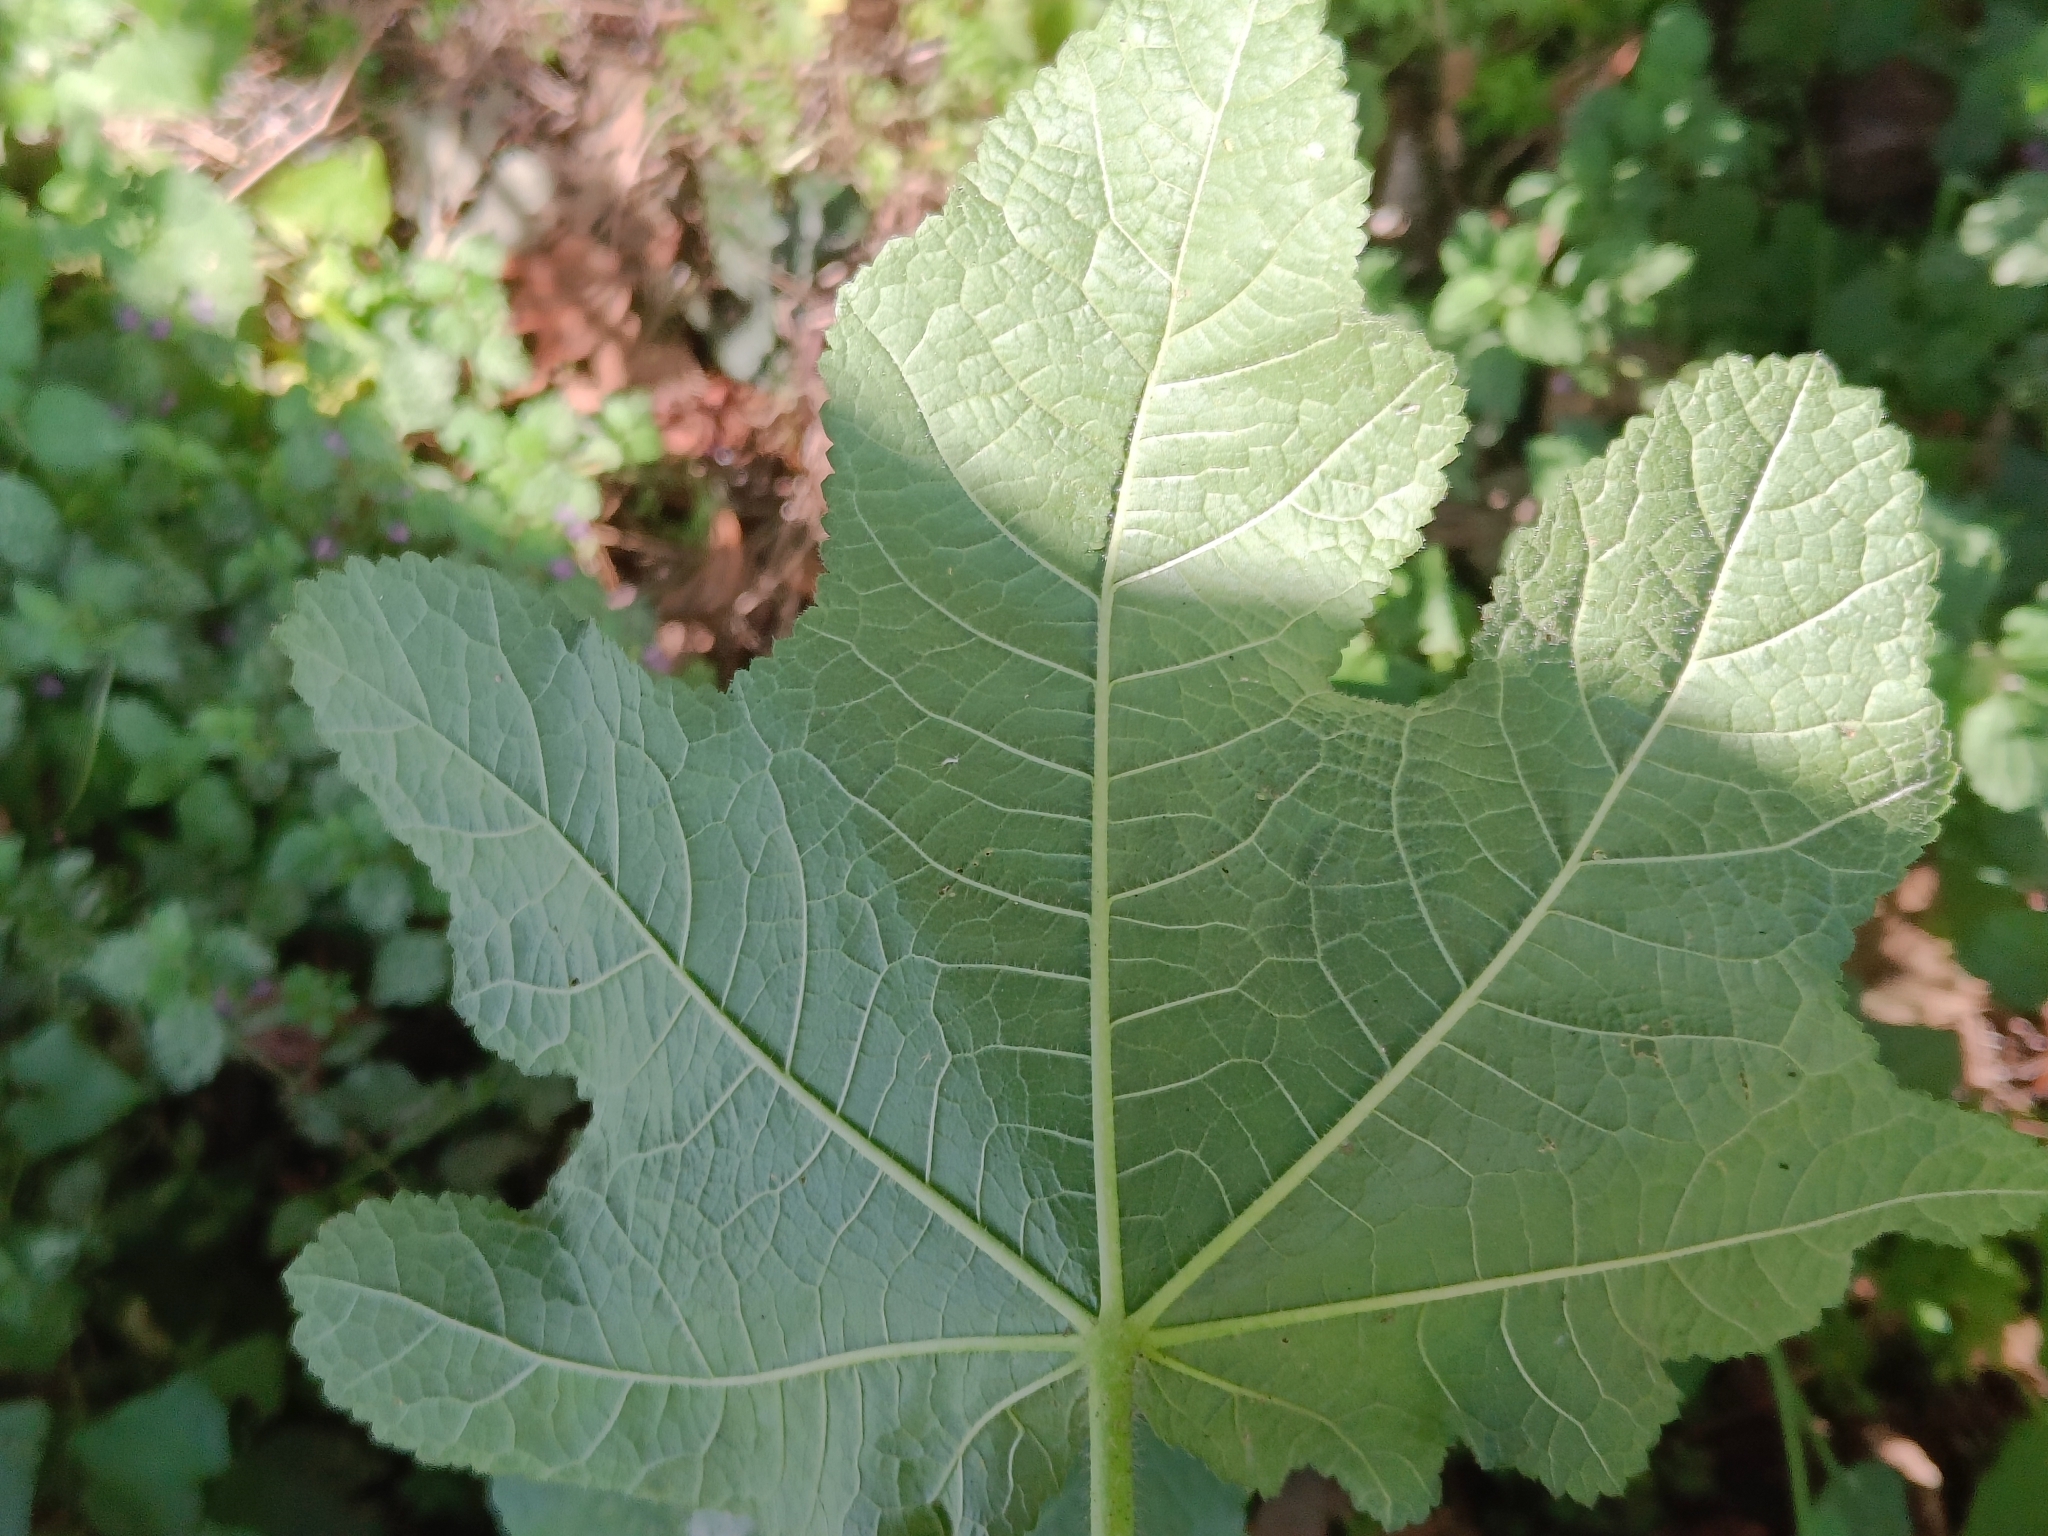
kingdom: Plantae
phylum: Tracheophyta
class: Magnoliopsida
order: Malvales
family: Malvaceae
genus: Alcea
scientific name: Alcea rosea
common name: Hollyhock
